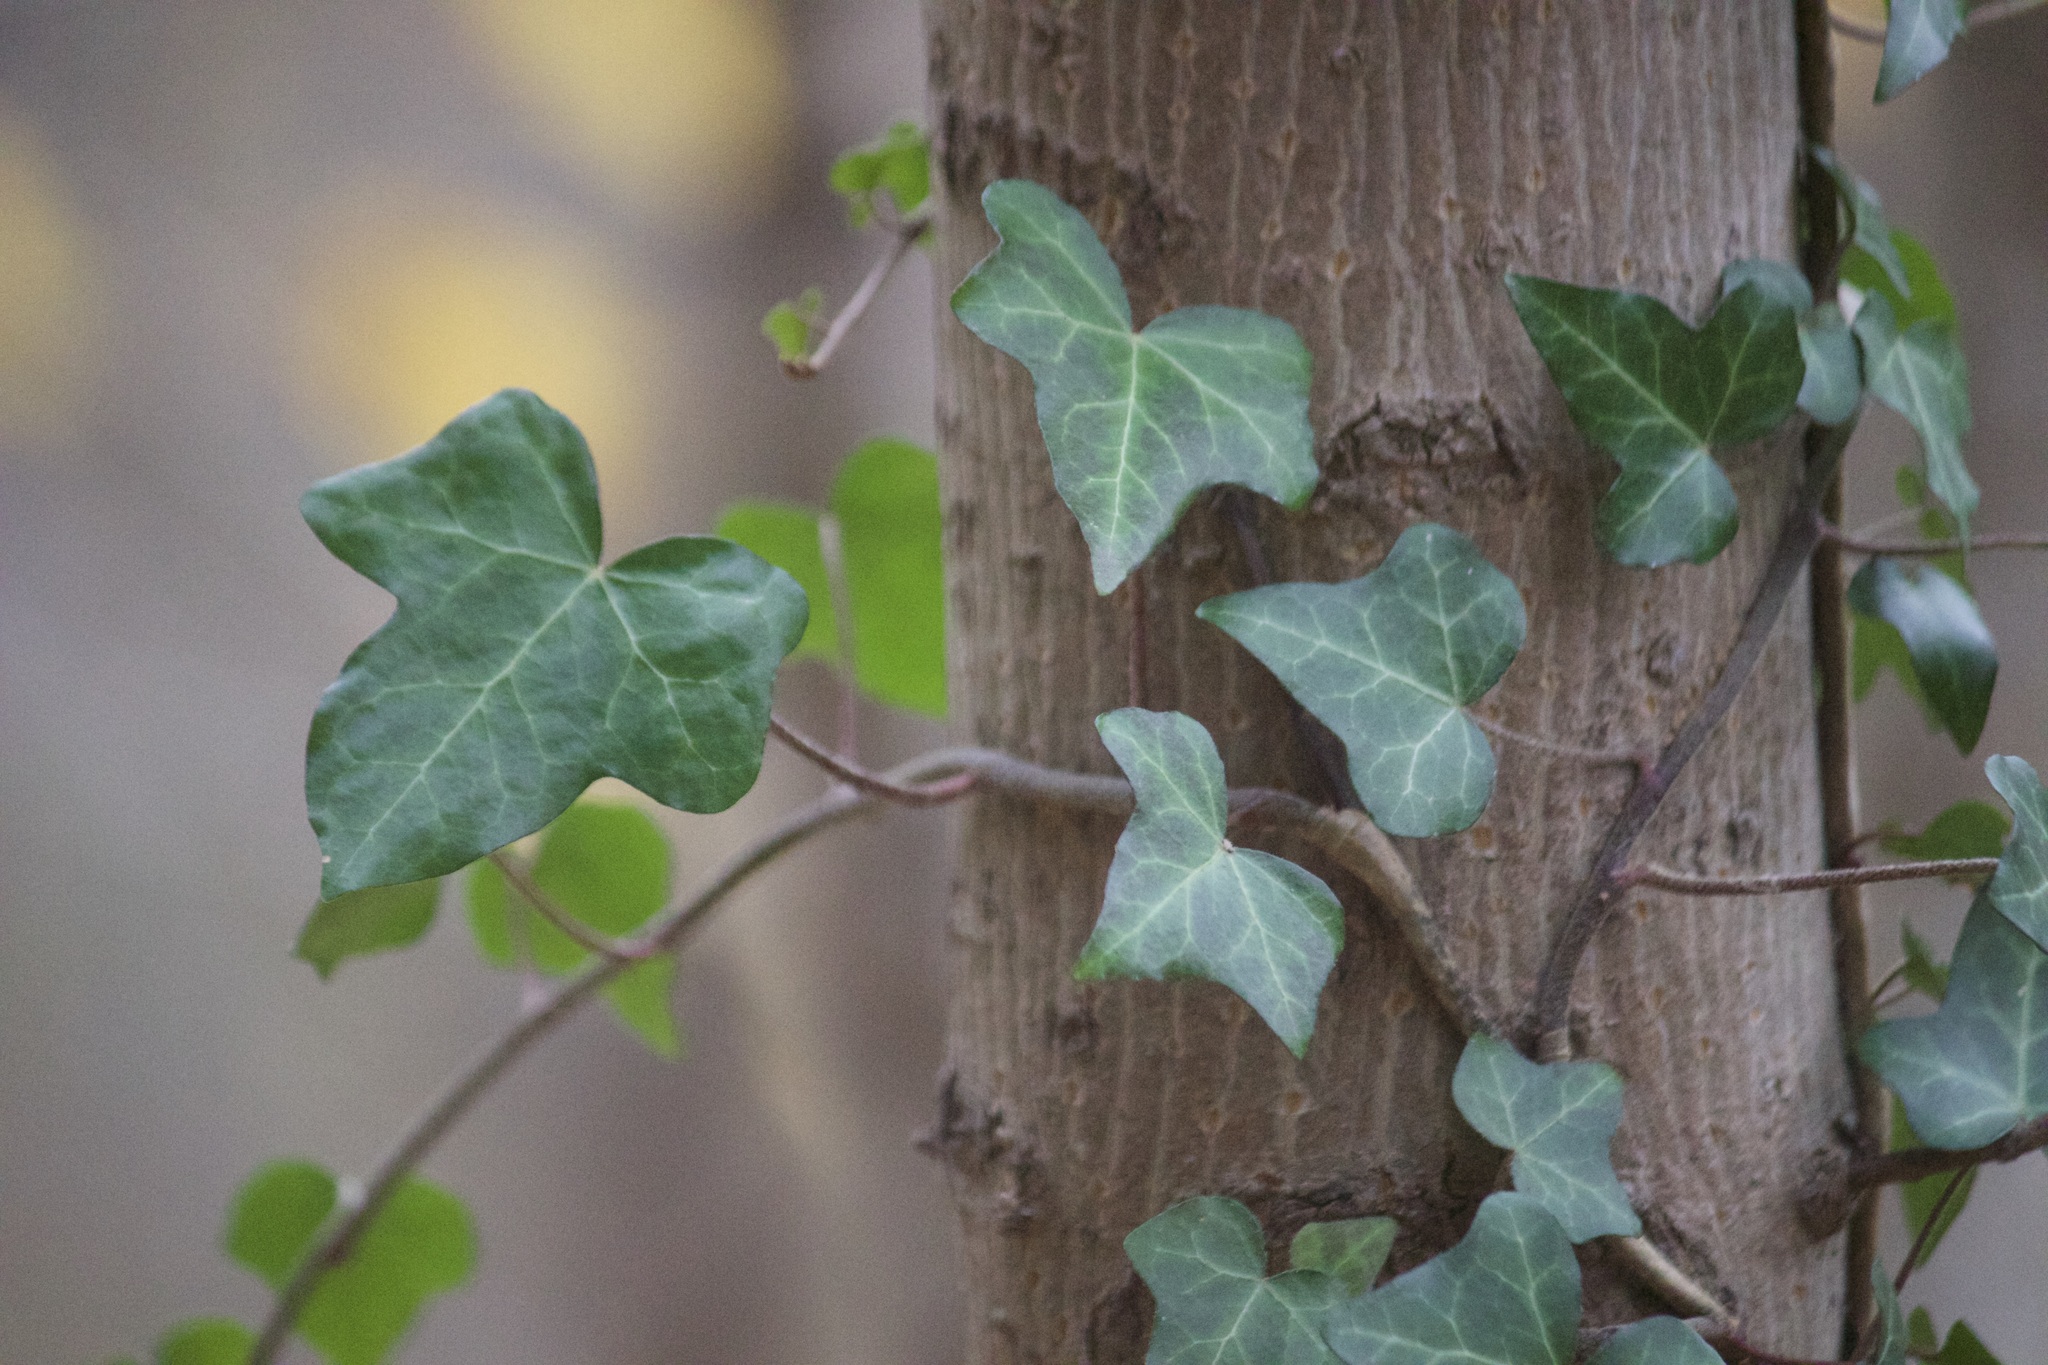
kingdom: Plantae
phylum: Tracheophyta
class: Magnoliopsida
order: Apiales
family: Araliaceae
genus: Hedera
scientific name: Hedera helix
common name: Ivy
